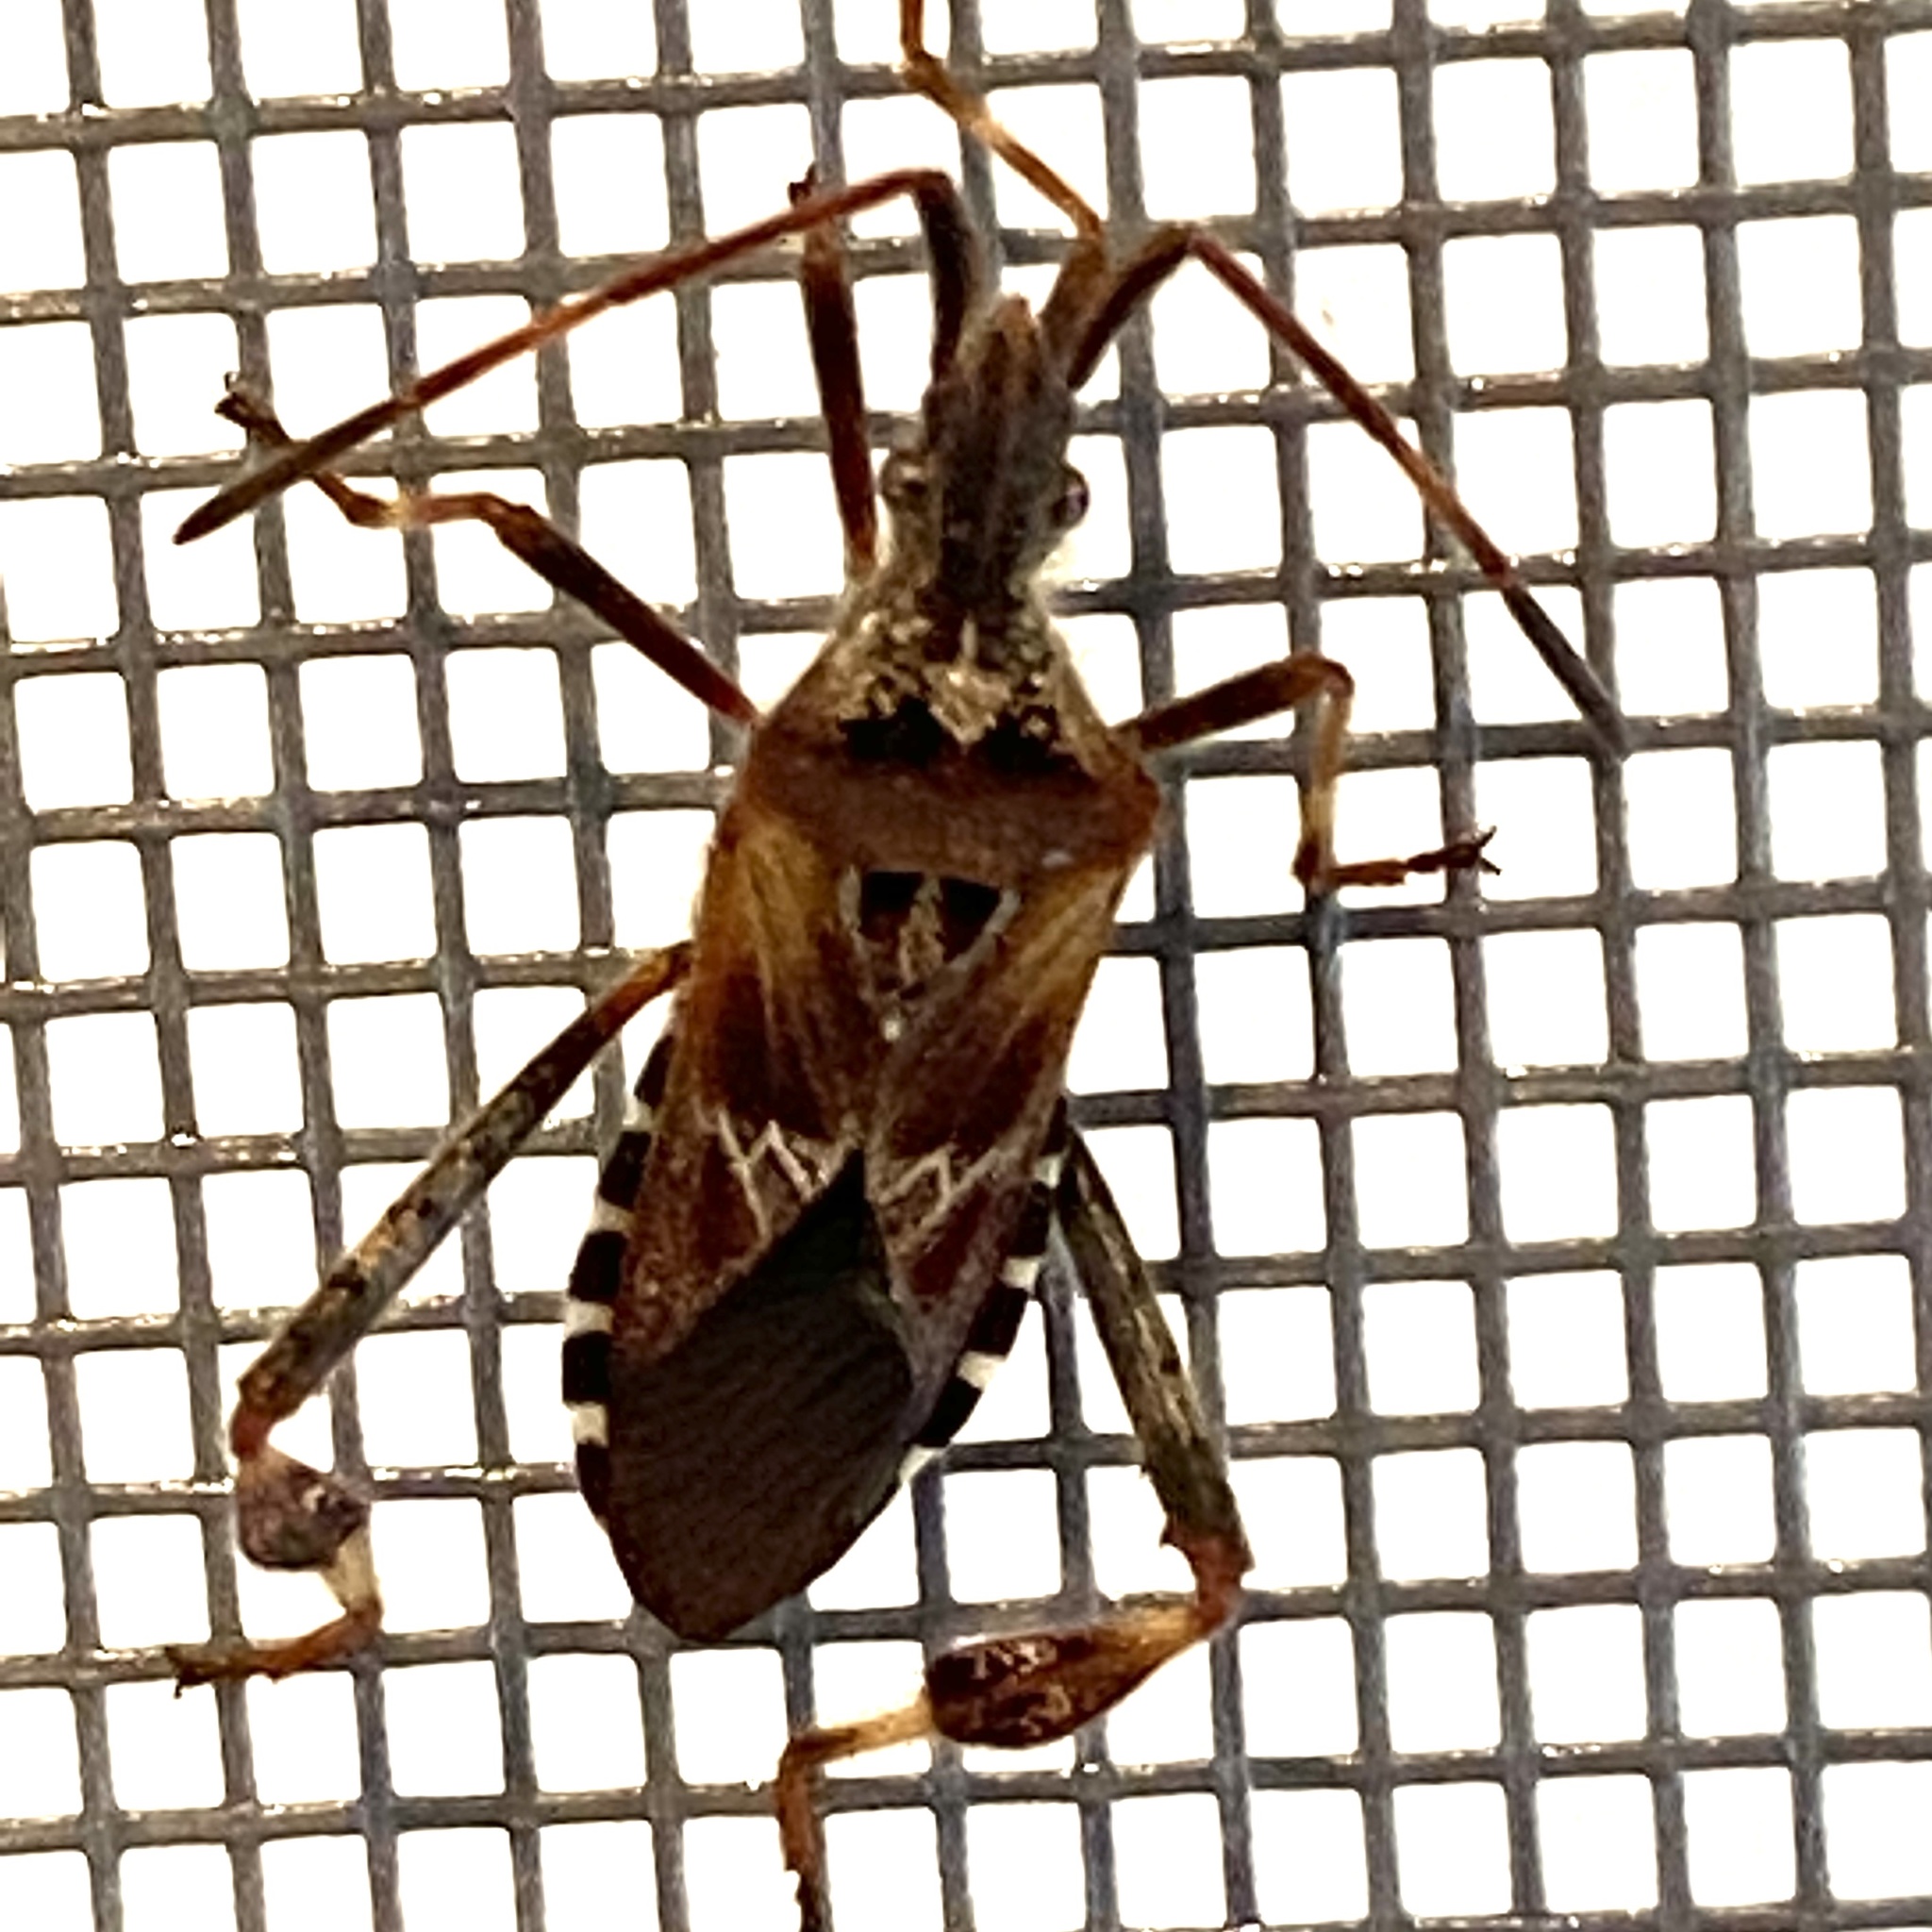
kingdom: Animalia
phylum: Arthropoda
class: Insecta
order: Hemiptera
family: Coreidae
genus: Leptoglossus
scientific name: Leptoglossus occidentalis
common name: Western conifer-seed bug
